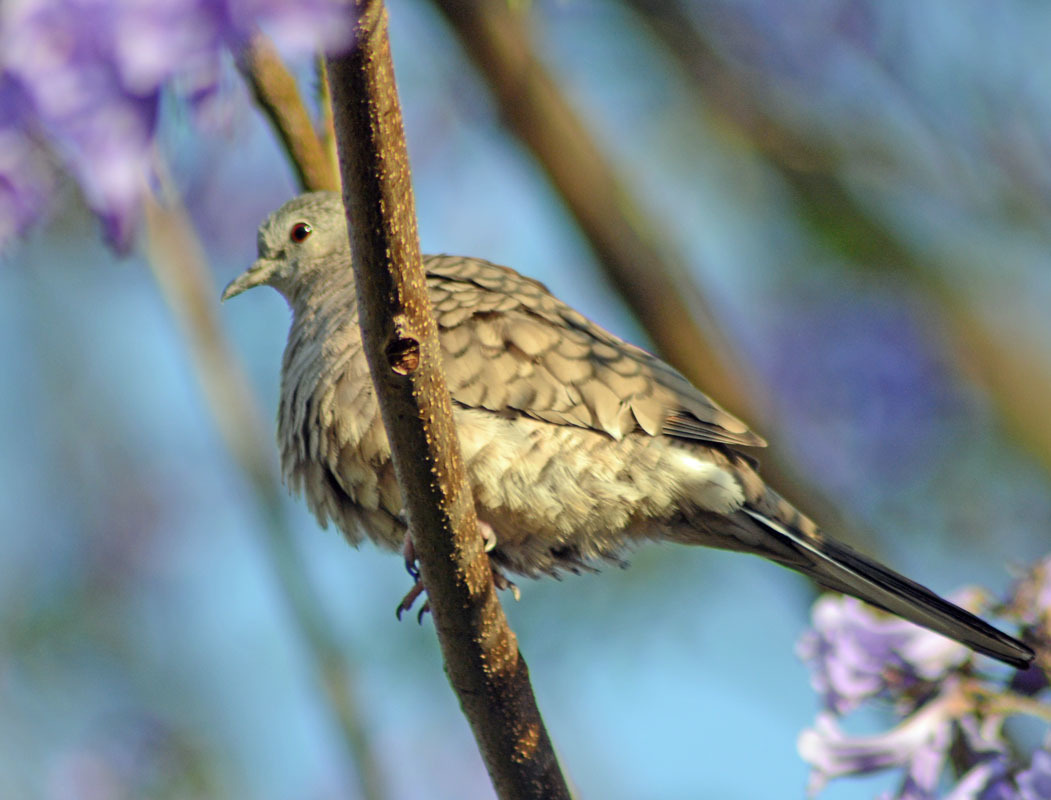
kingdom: Animalia
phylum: Chordata
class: Aves
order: Columbiformes
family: Columbidae
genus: Columbina
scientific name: Columbina inca
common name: Inca dove
